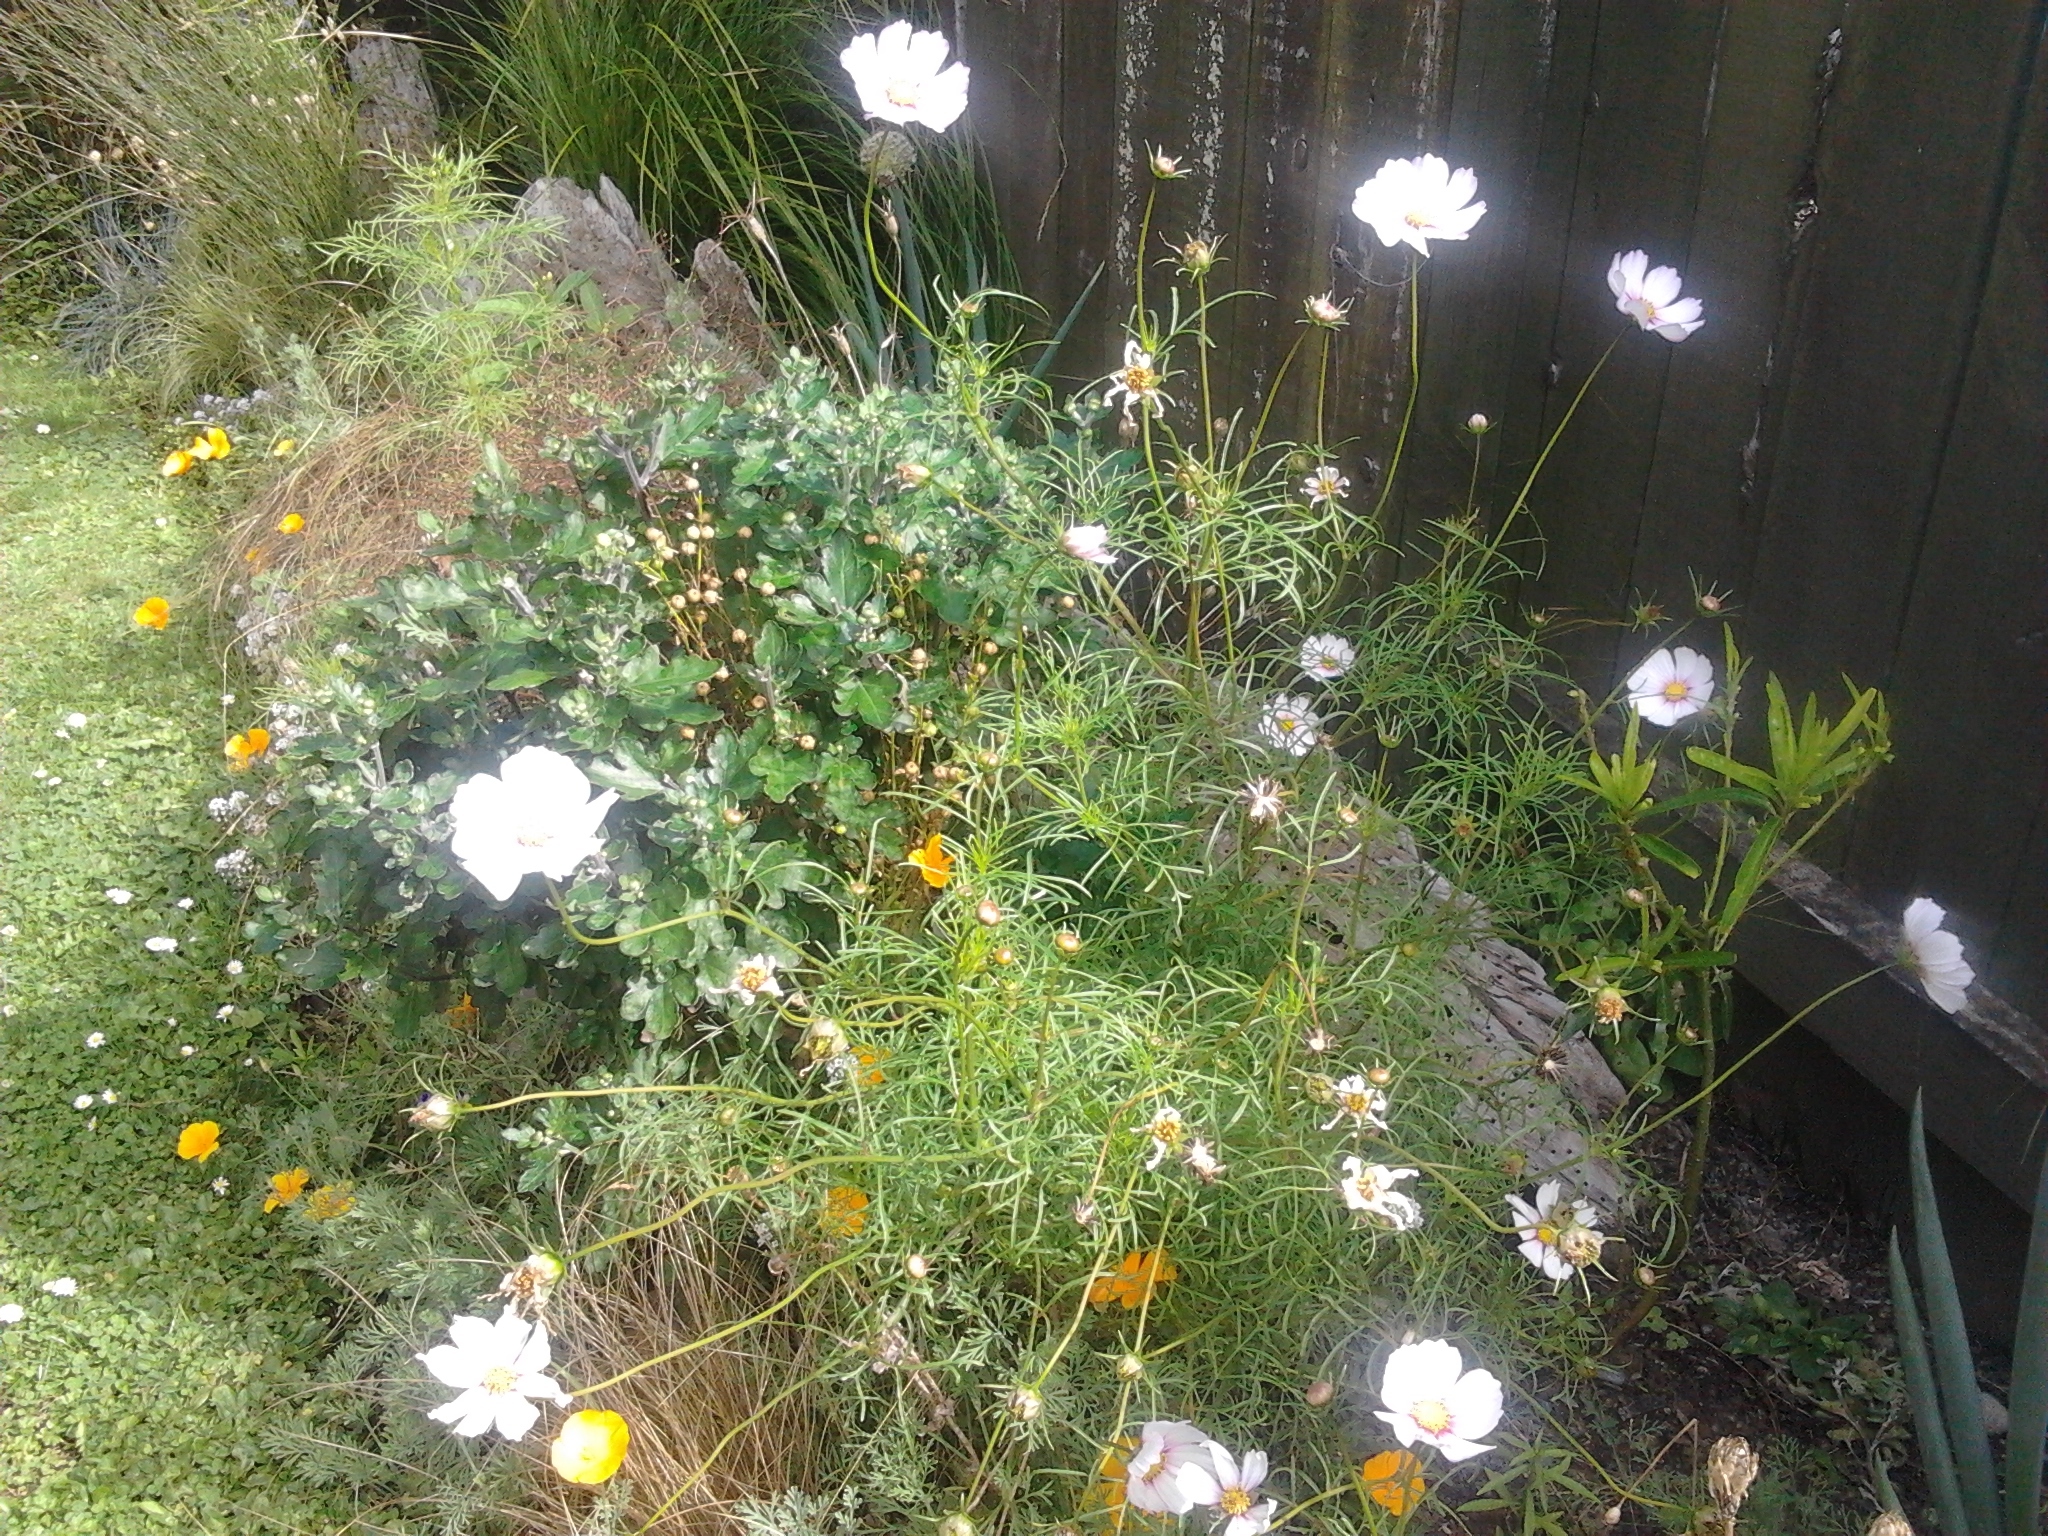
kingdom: Plantae
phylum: Tracheophyta
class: Magnoliopsida
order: Asterales
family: Asteraceae
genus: Cosmos
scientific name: Cosmos bipinnatus
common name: Garden cosmos
